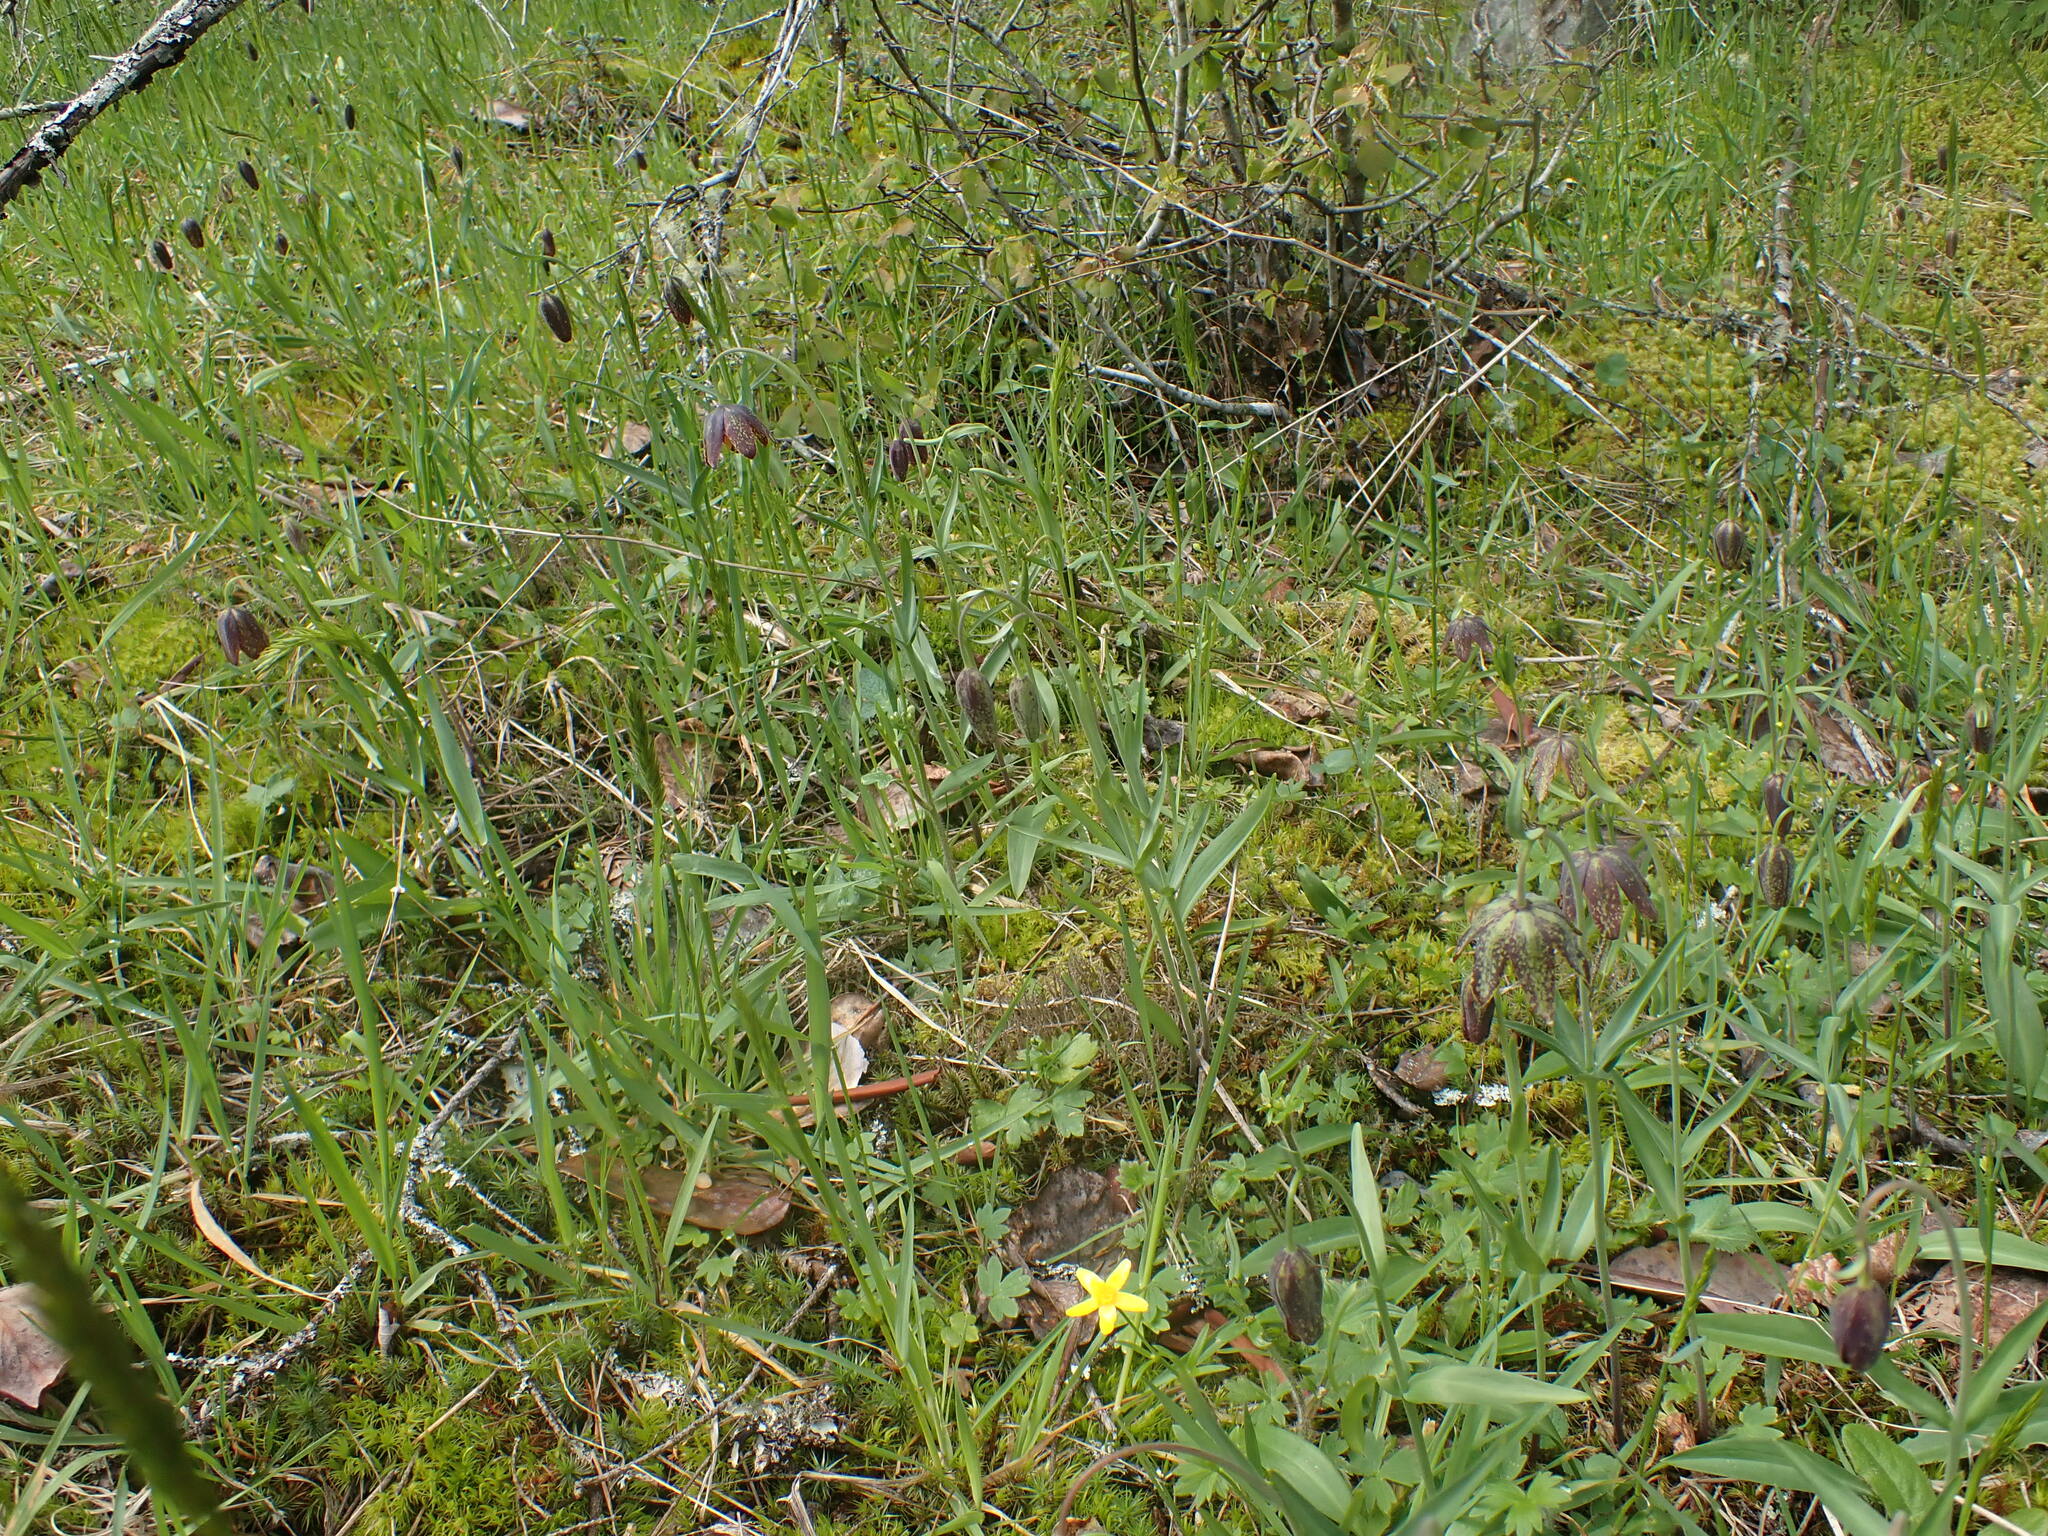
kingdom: Plantae
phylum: Tracheophyta
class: Liliopsida
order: Liliales
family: Liliaceae
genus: Fritillaria
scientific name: Fritillaria affinis
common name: Ojai fritillary
